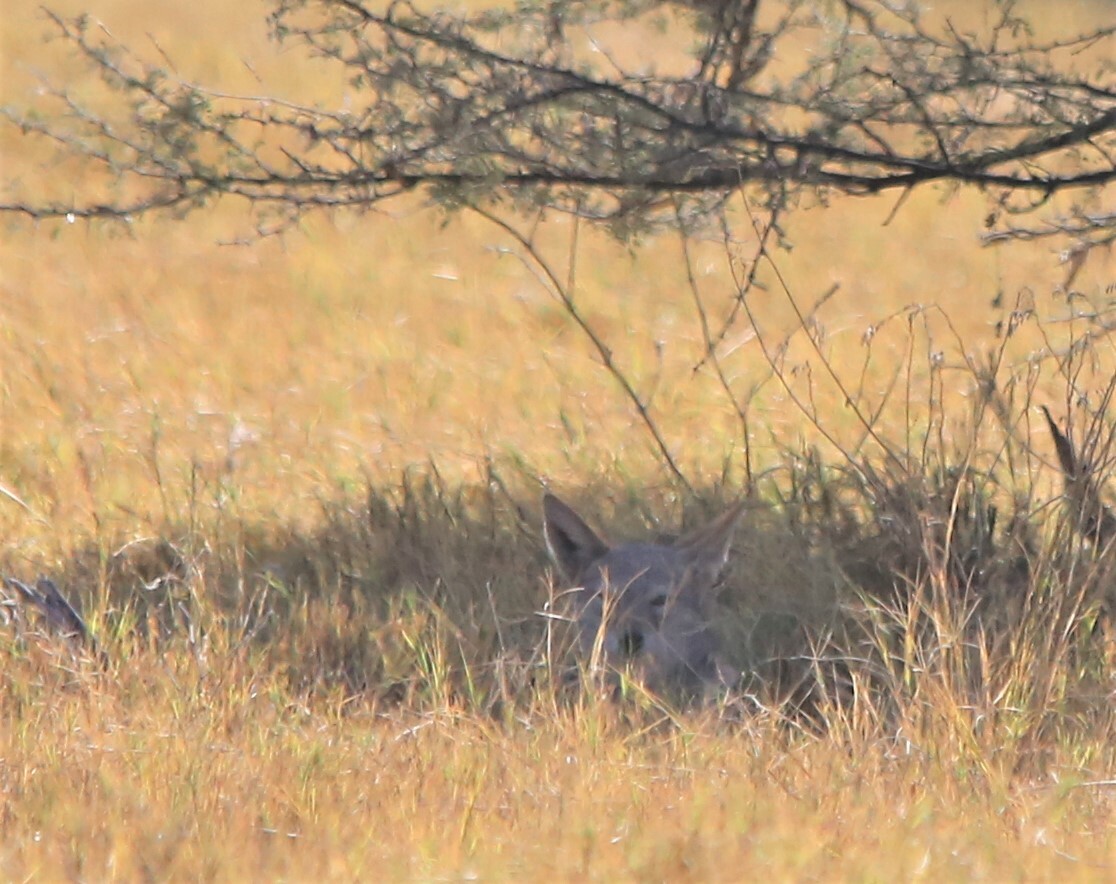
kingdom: Animalia
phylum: Chordata
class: Mammalia
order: Carnivora
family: Canidae
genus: Lupulella
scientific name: Lupulella
